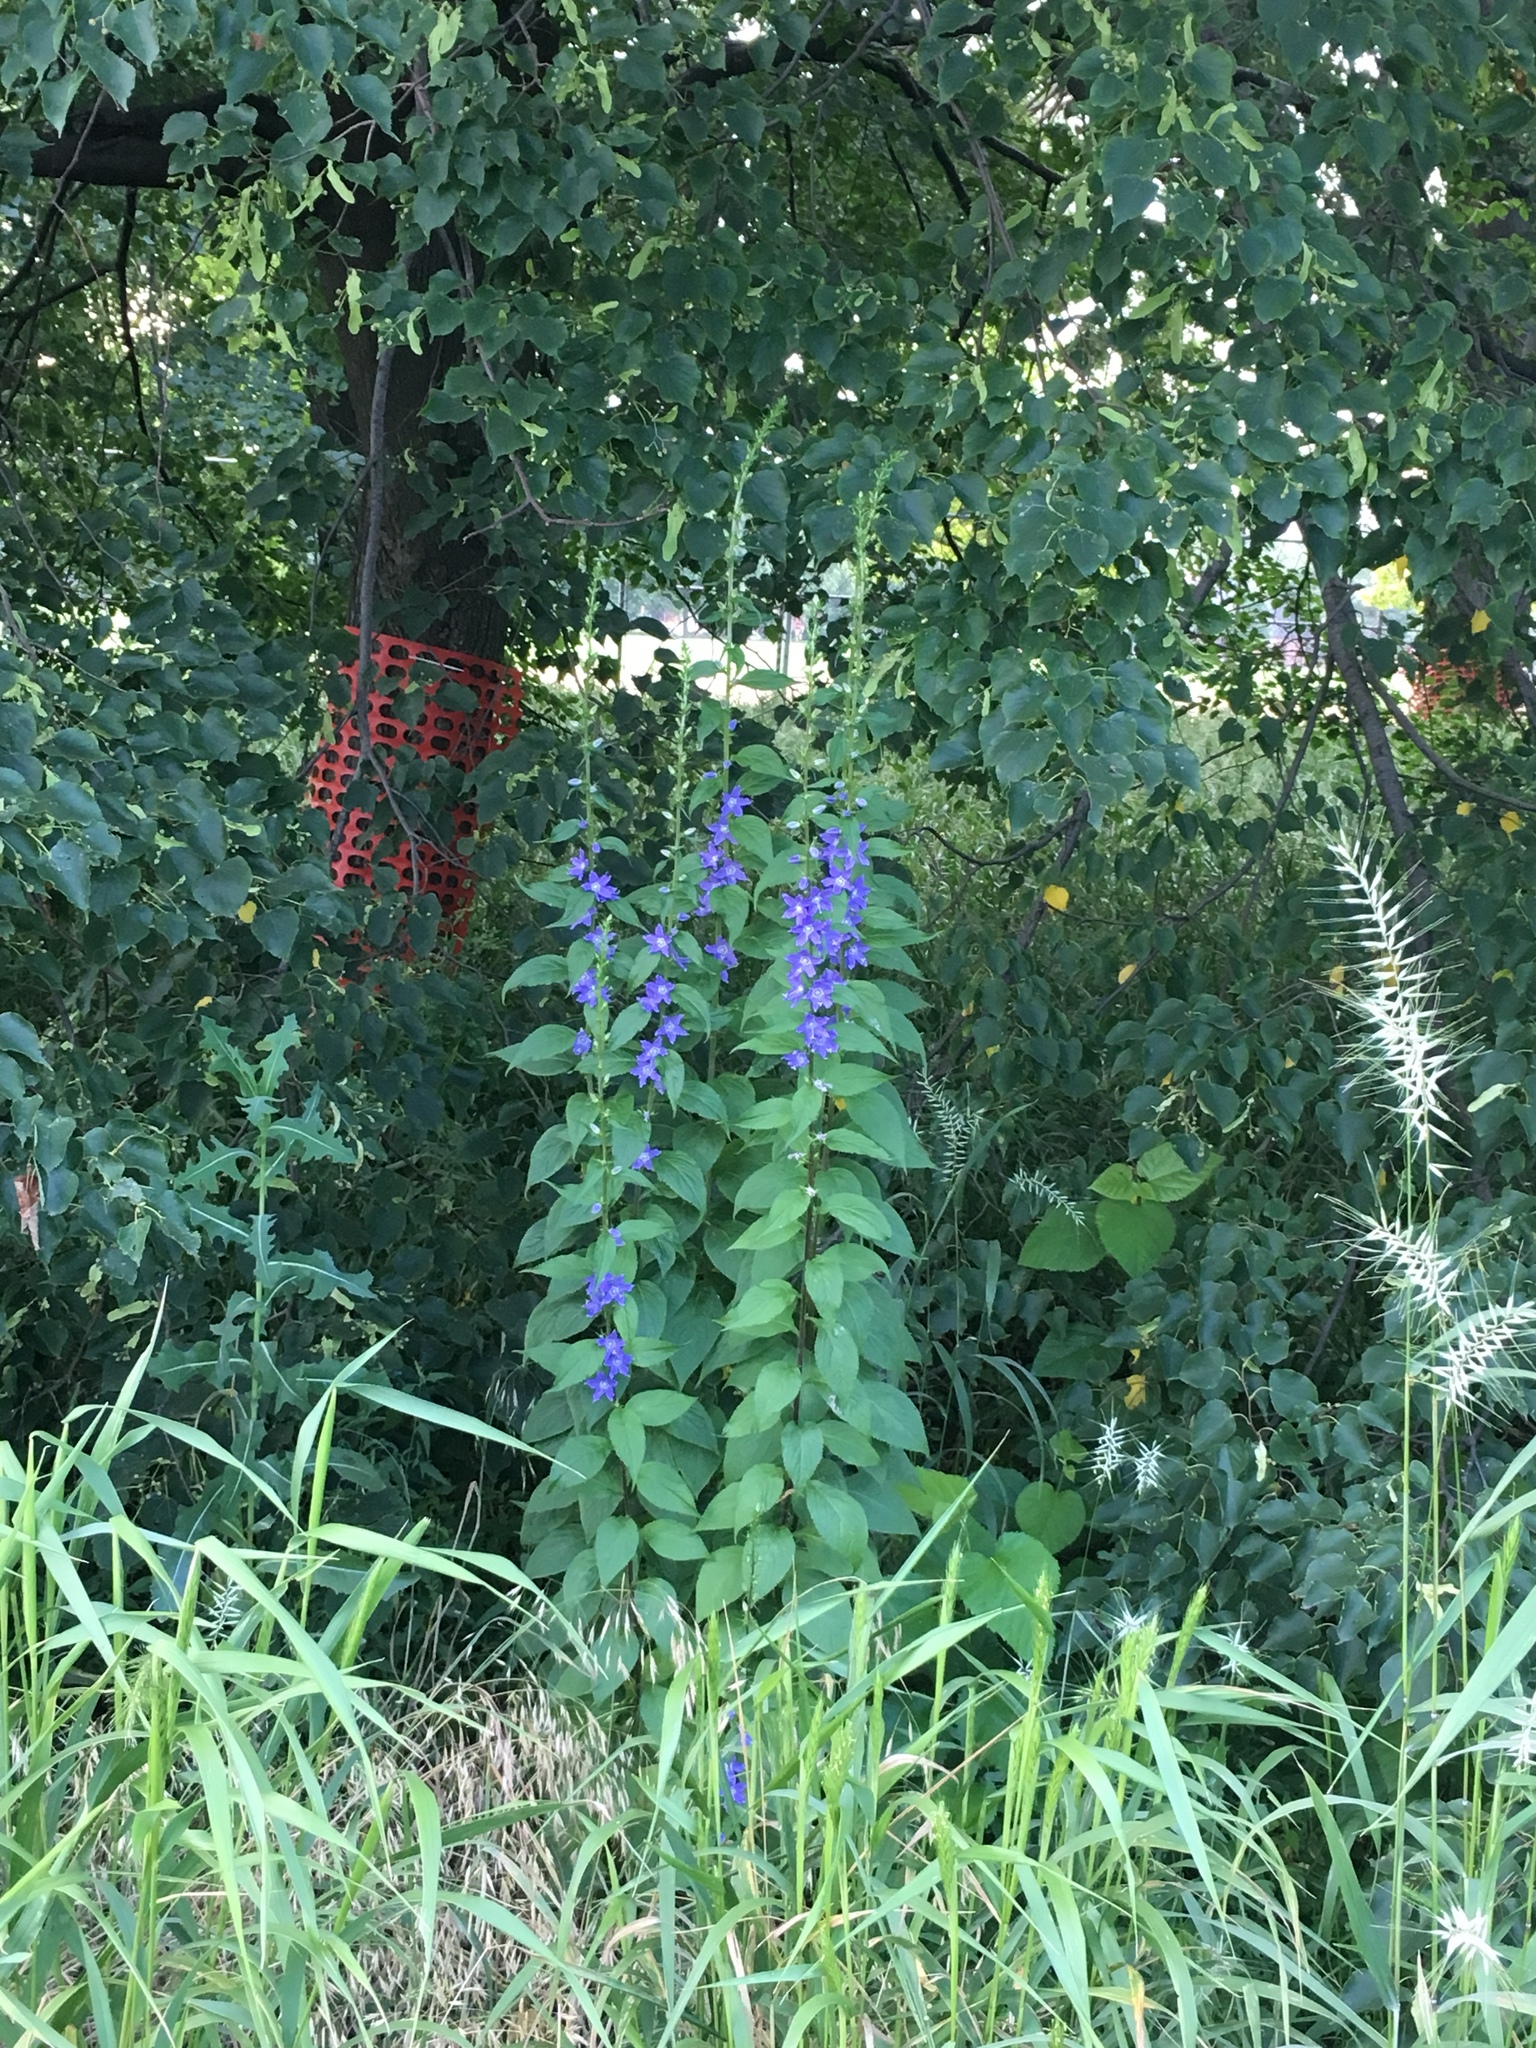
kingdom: Plantae
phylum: Tracheophyta
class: Magnoliopsida
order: Asterales
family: Campanulaceae
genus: Campanulastrum
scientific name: Campanulastrum americanum
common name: American bellflower
